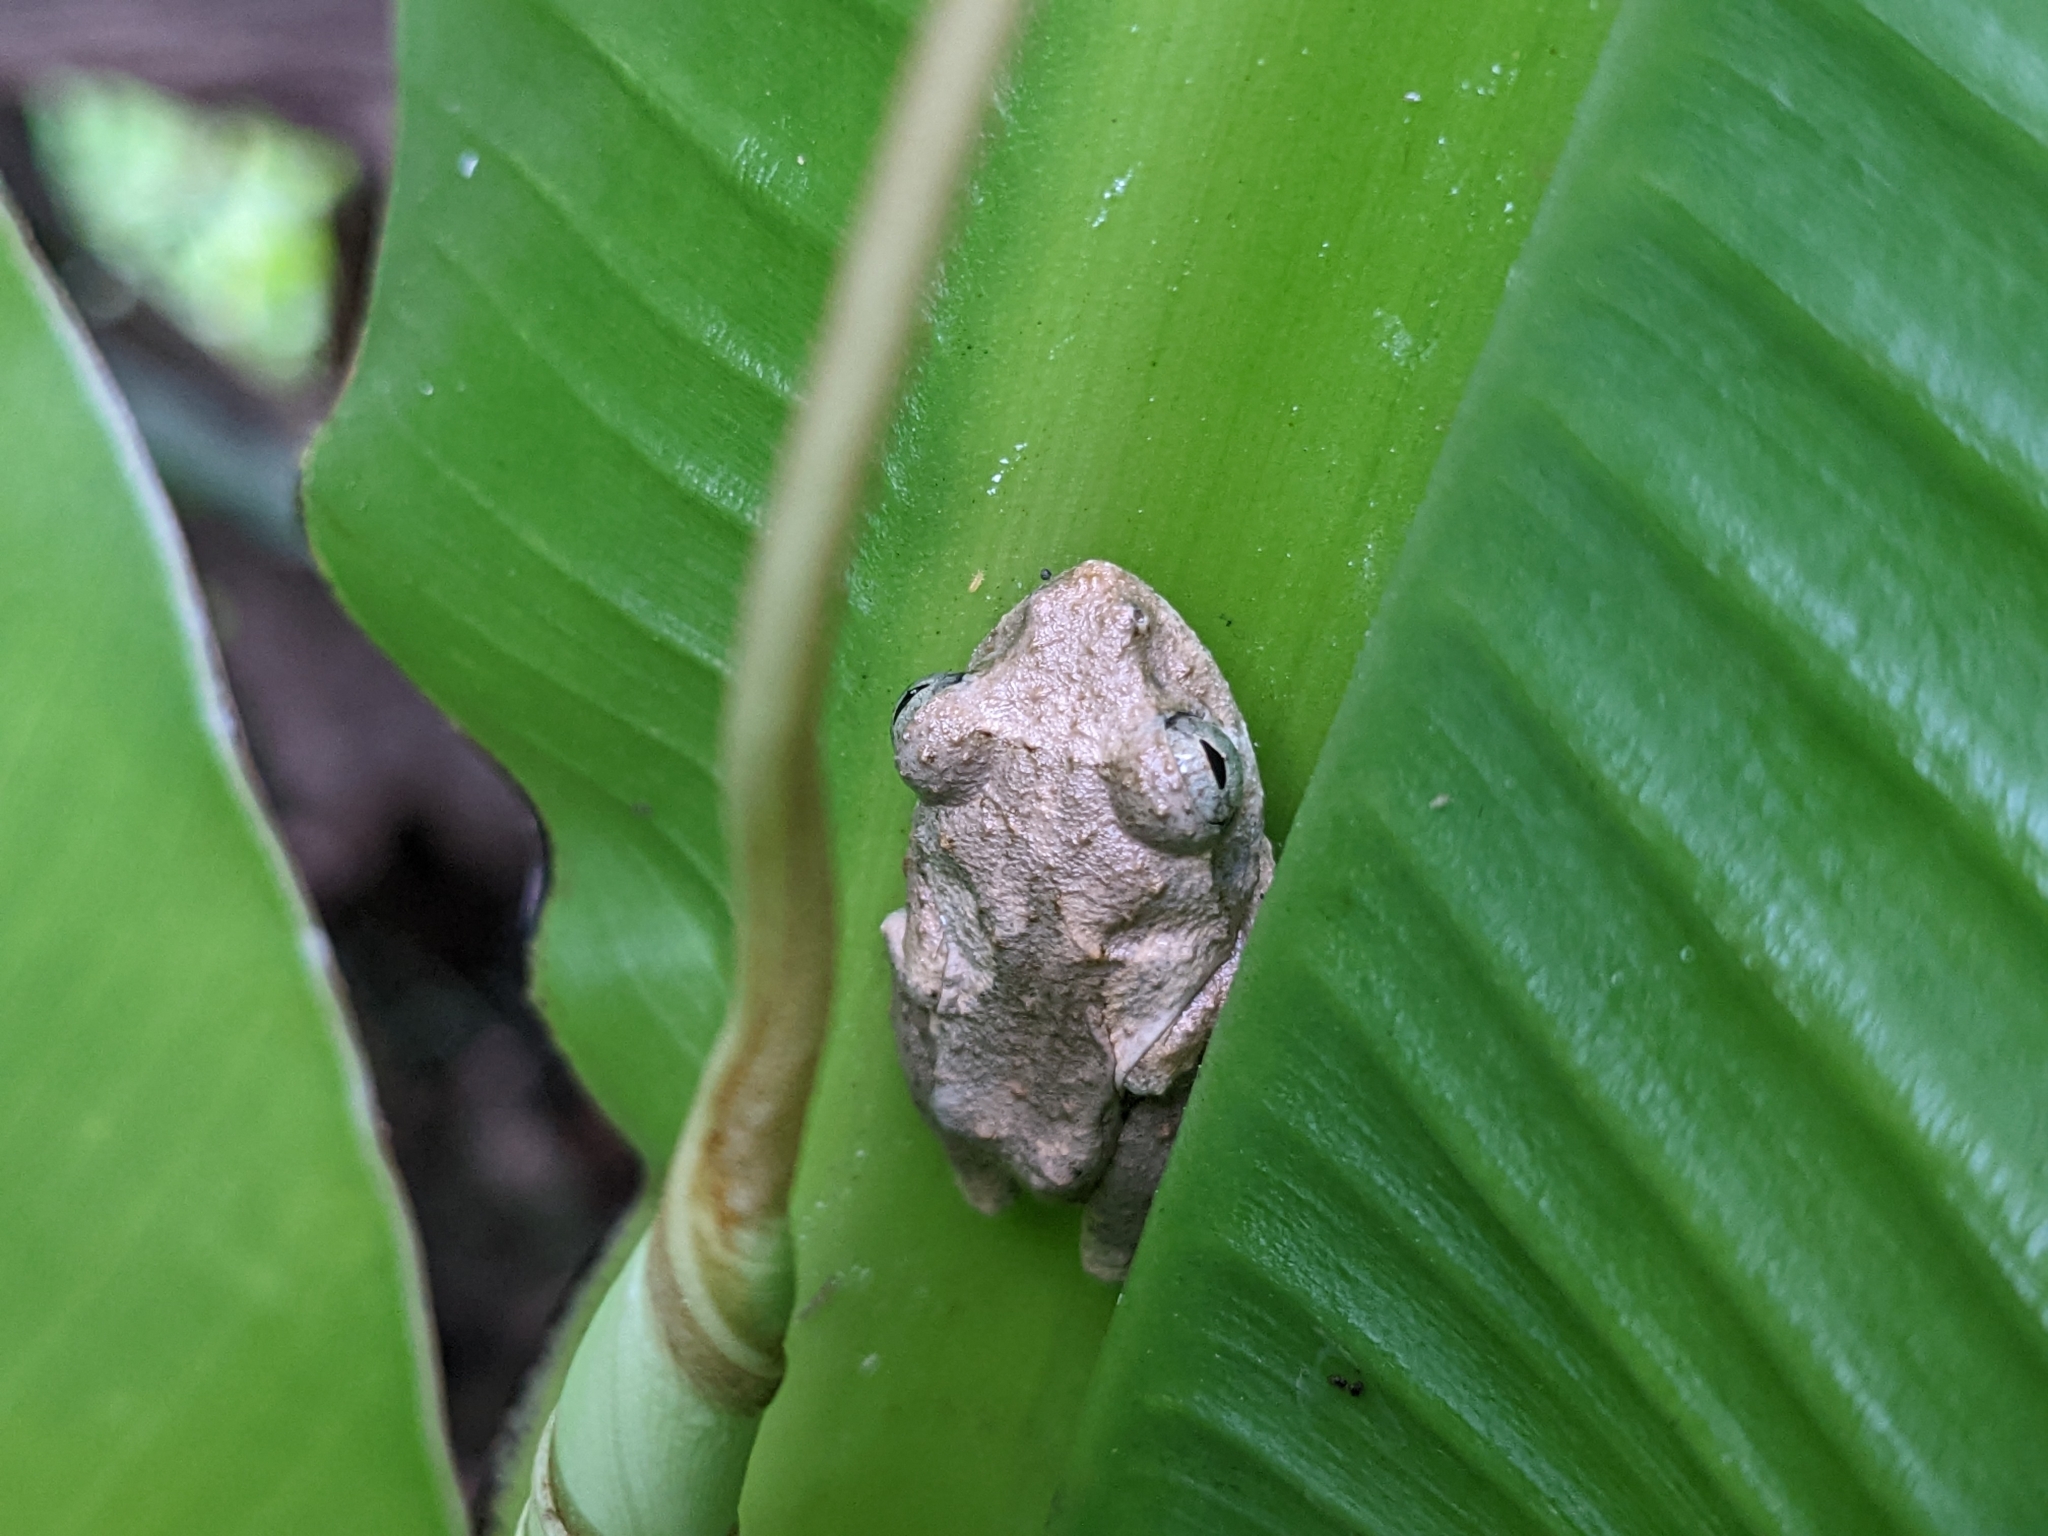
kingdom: Animalia
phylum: Chordata
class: Amphibia
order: Anura
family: Rhacophoridae
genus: Kurixalus
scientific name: Kurixalus idiootocus
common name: Temple treefrog
